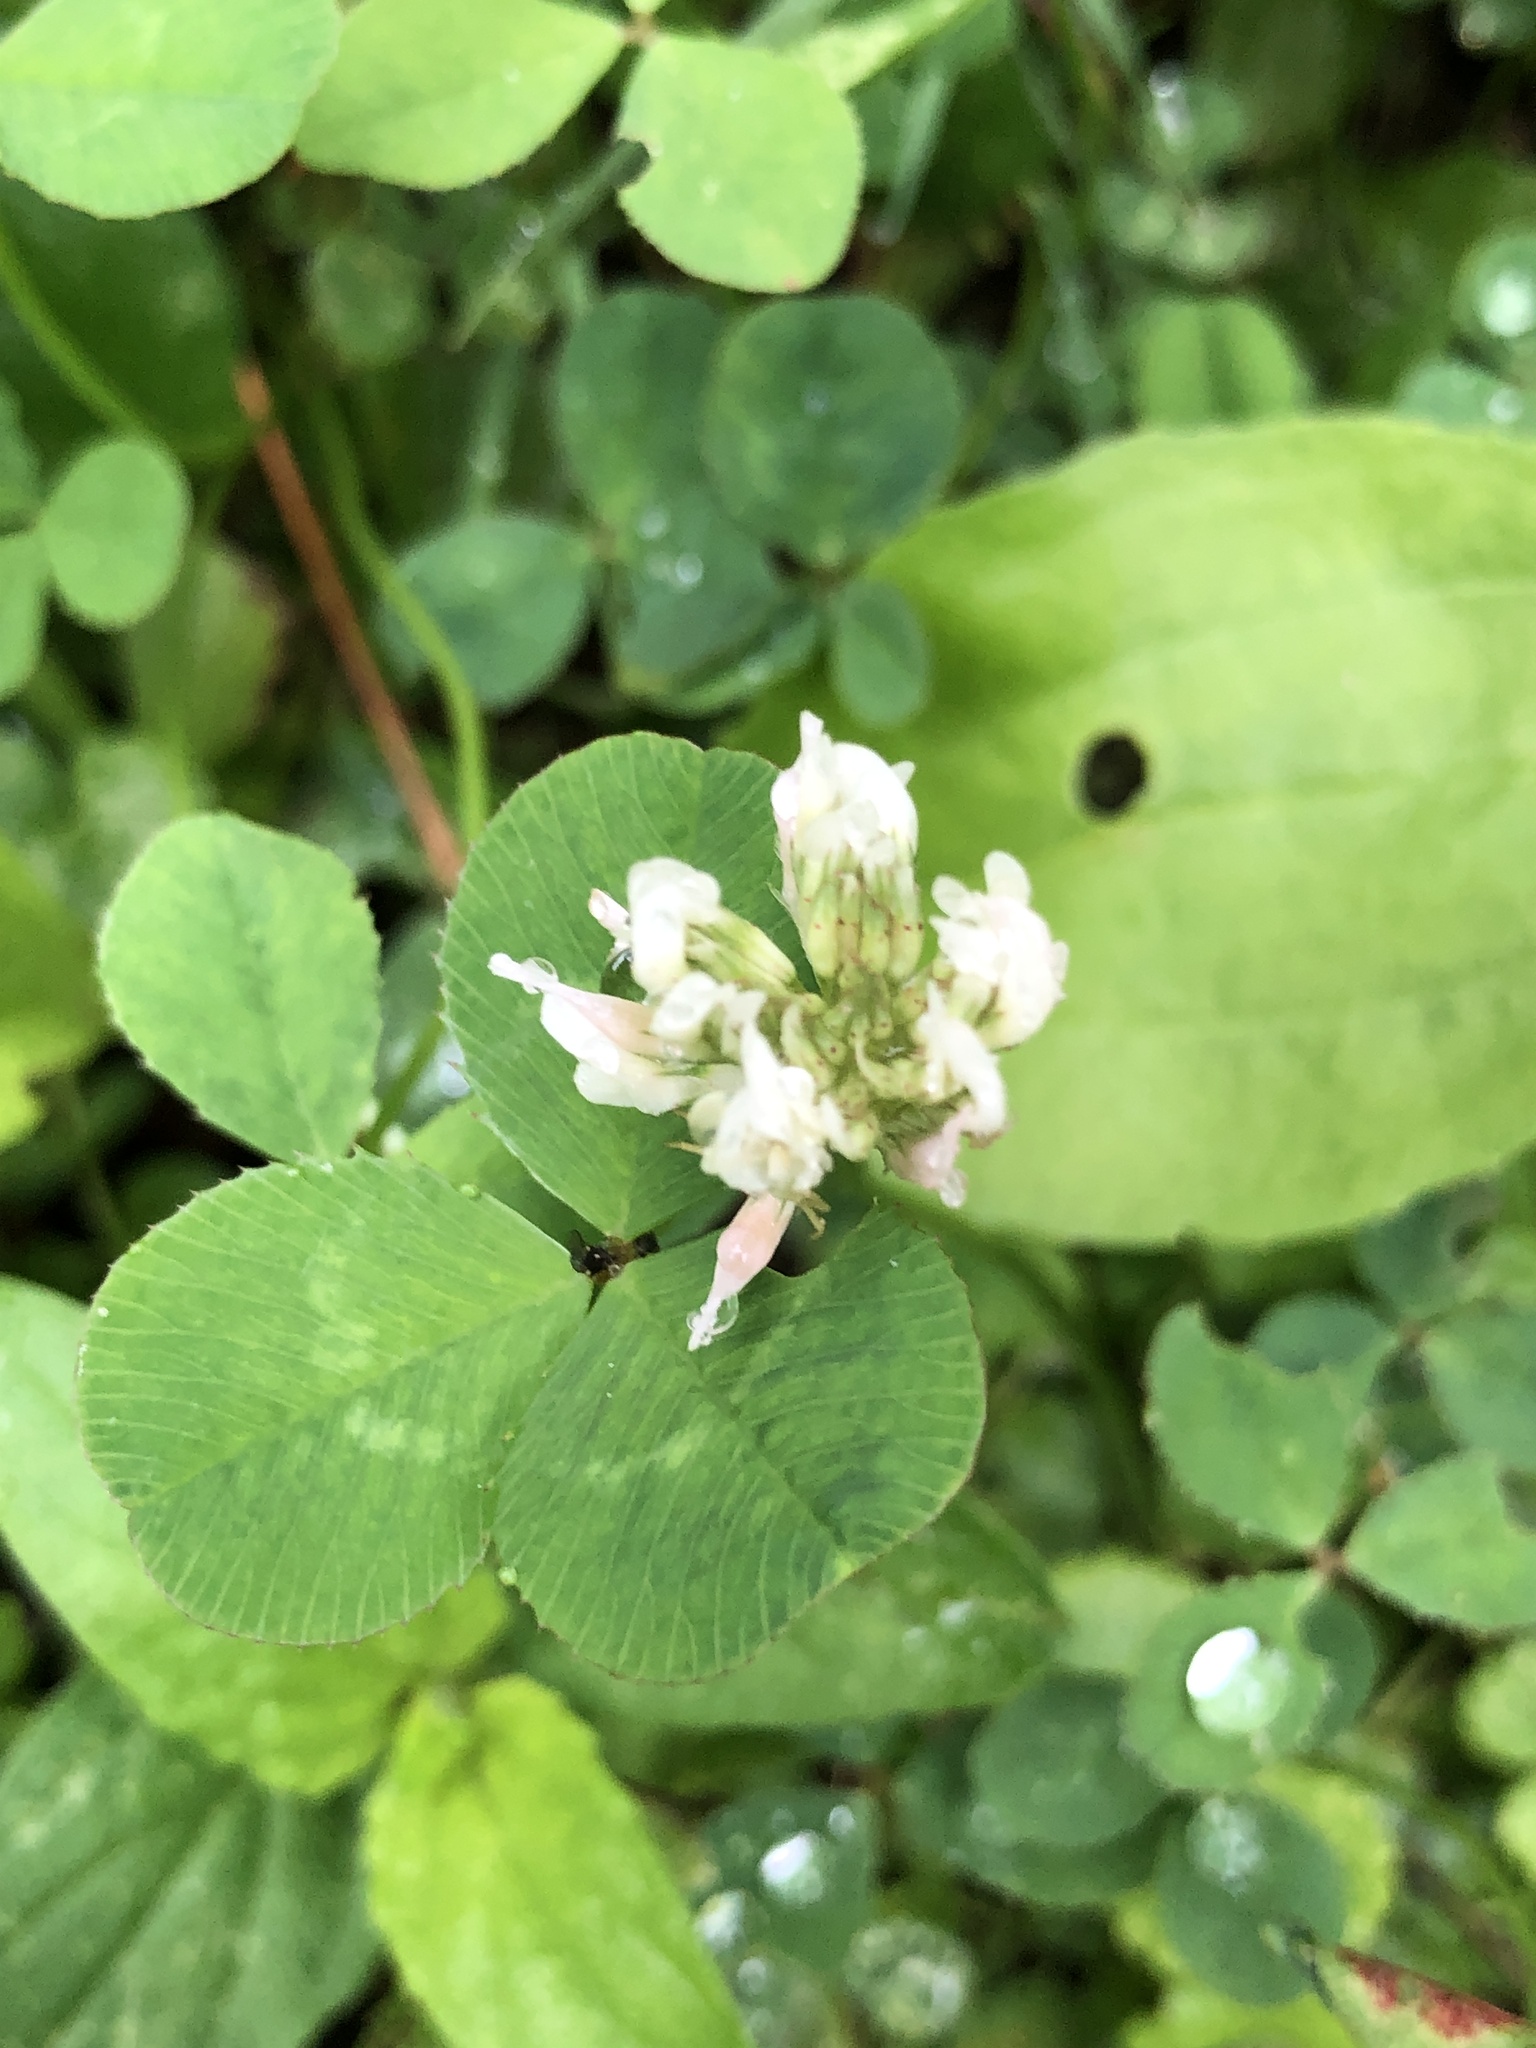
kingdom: Plantae
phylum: Tracheophyta
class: Magnoliopsida
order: Fabales
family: Fabaceae
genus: Trifolium
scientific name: Trifolium repens
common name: White clover
